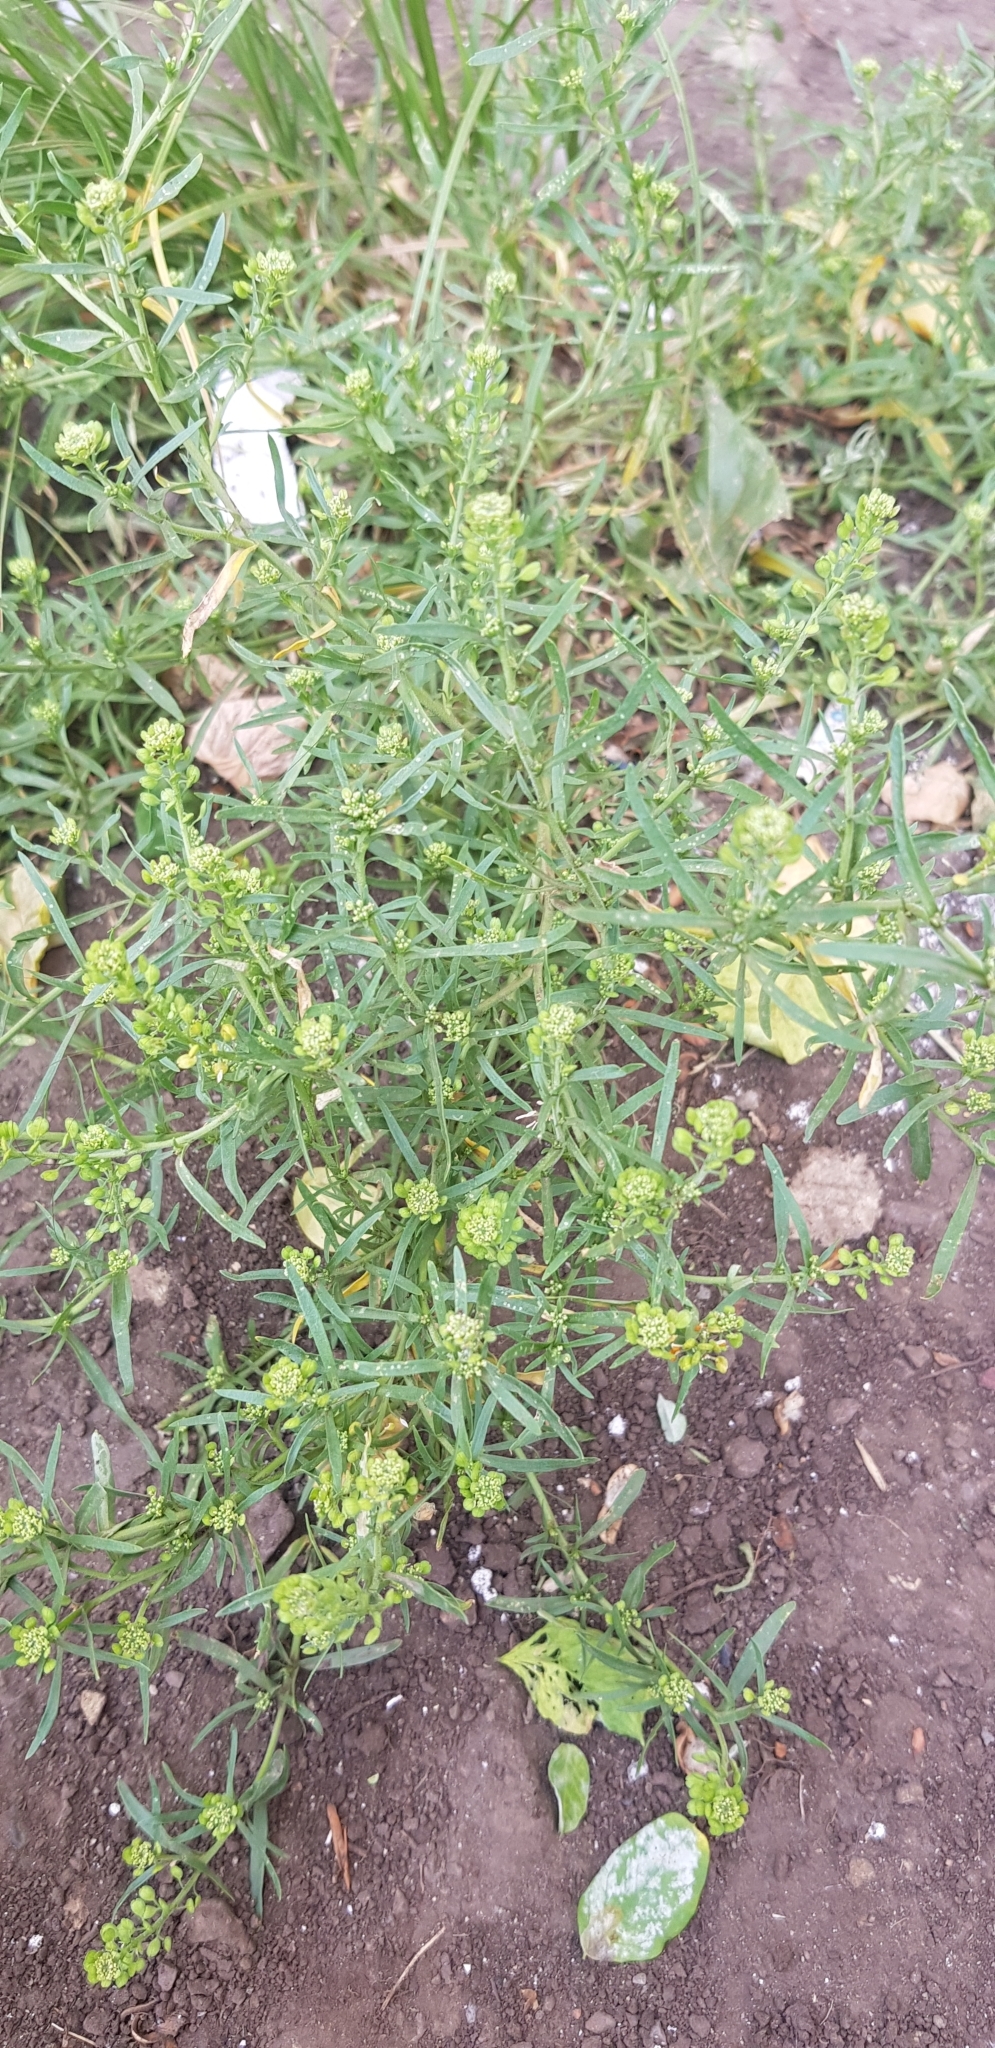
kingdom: Plantae
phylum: Tracheophyta
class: Magnoliopsida
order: Brassicales
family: Brassicaceae
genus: Lepidium
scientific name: Lepidium ruderale
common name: Narrow-leaved pepperwort
